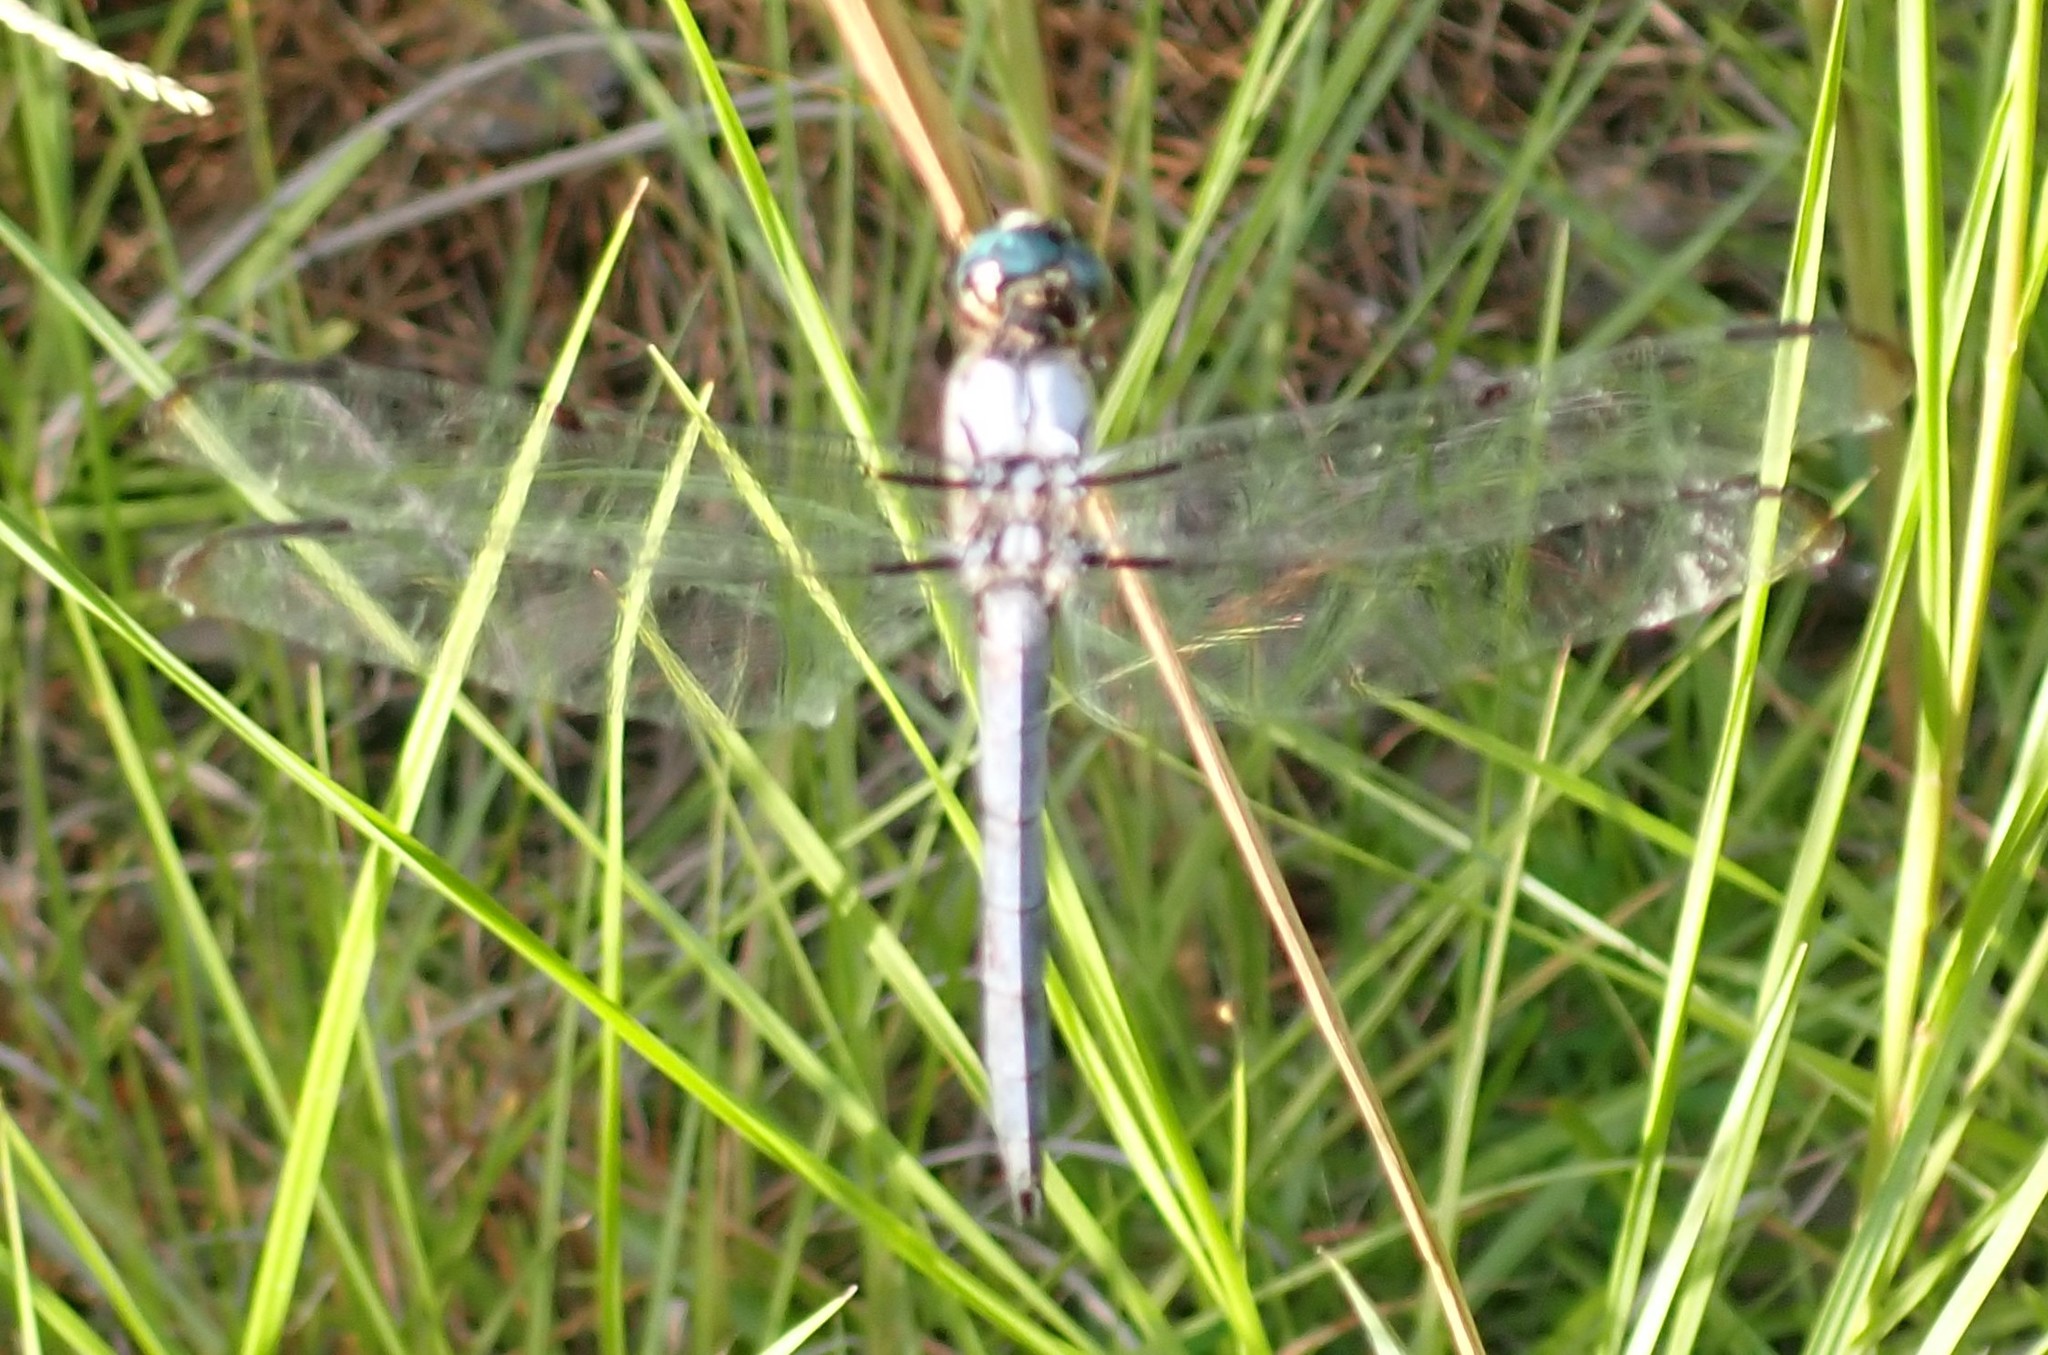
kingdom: Animalia
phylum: Arthropoda
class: Insecta
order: Odonata
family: Libellulidae
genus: Libellula
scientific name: Libellula vibrans
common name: Great blue skimmer
